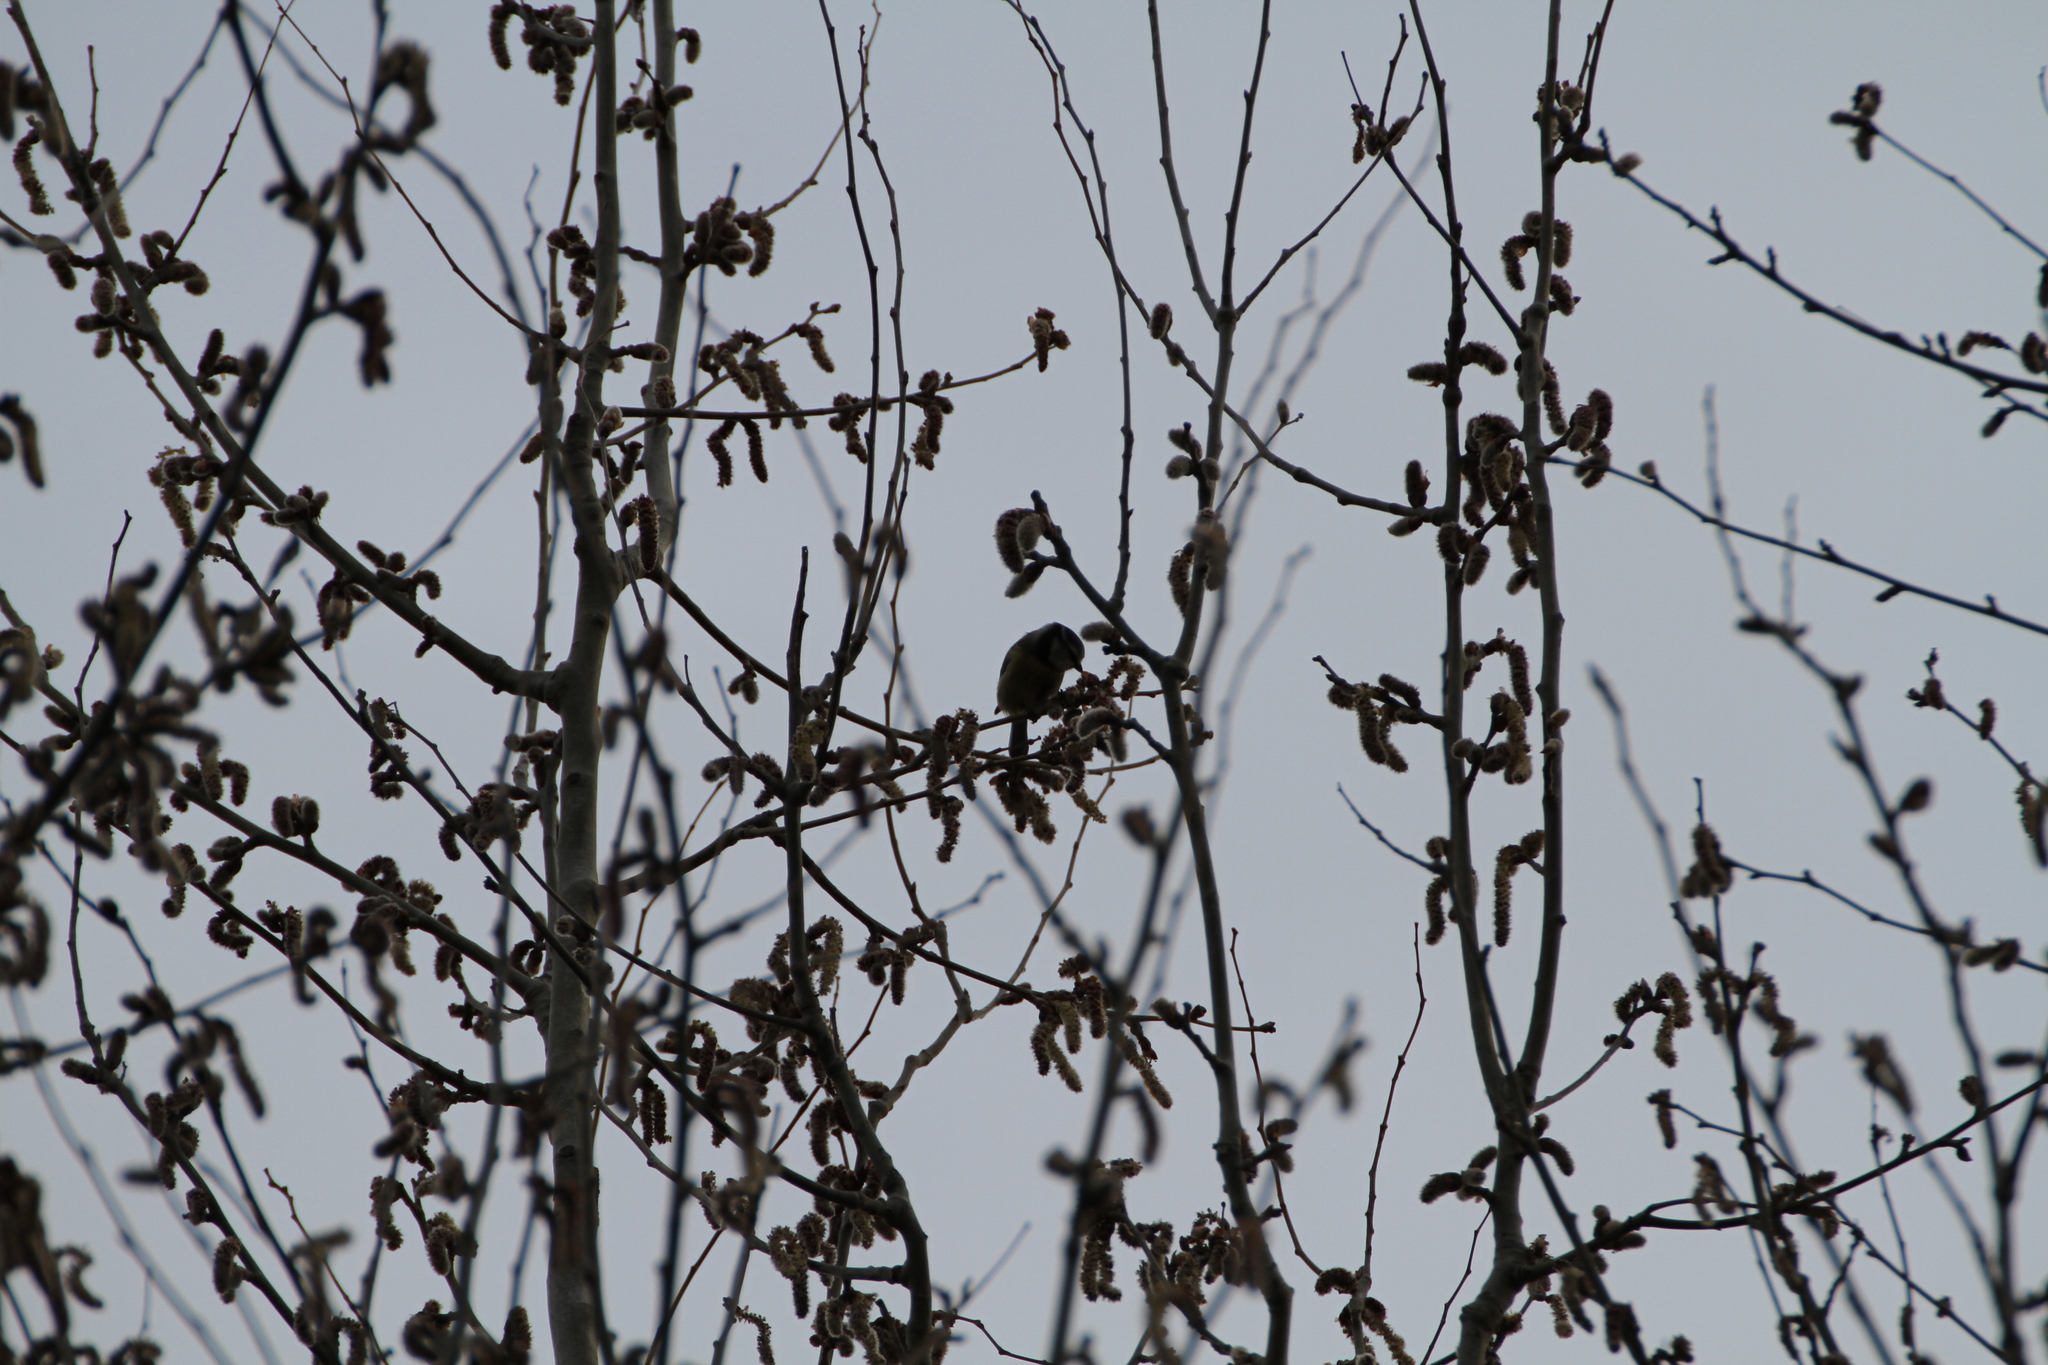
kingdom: Animalia
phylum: Chordata
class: Aves
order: Passeriformes
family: Paridae
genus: Cyanistes
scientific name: Cyanistes caeruleus
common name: Eurasian blue tit
